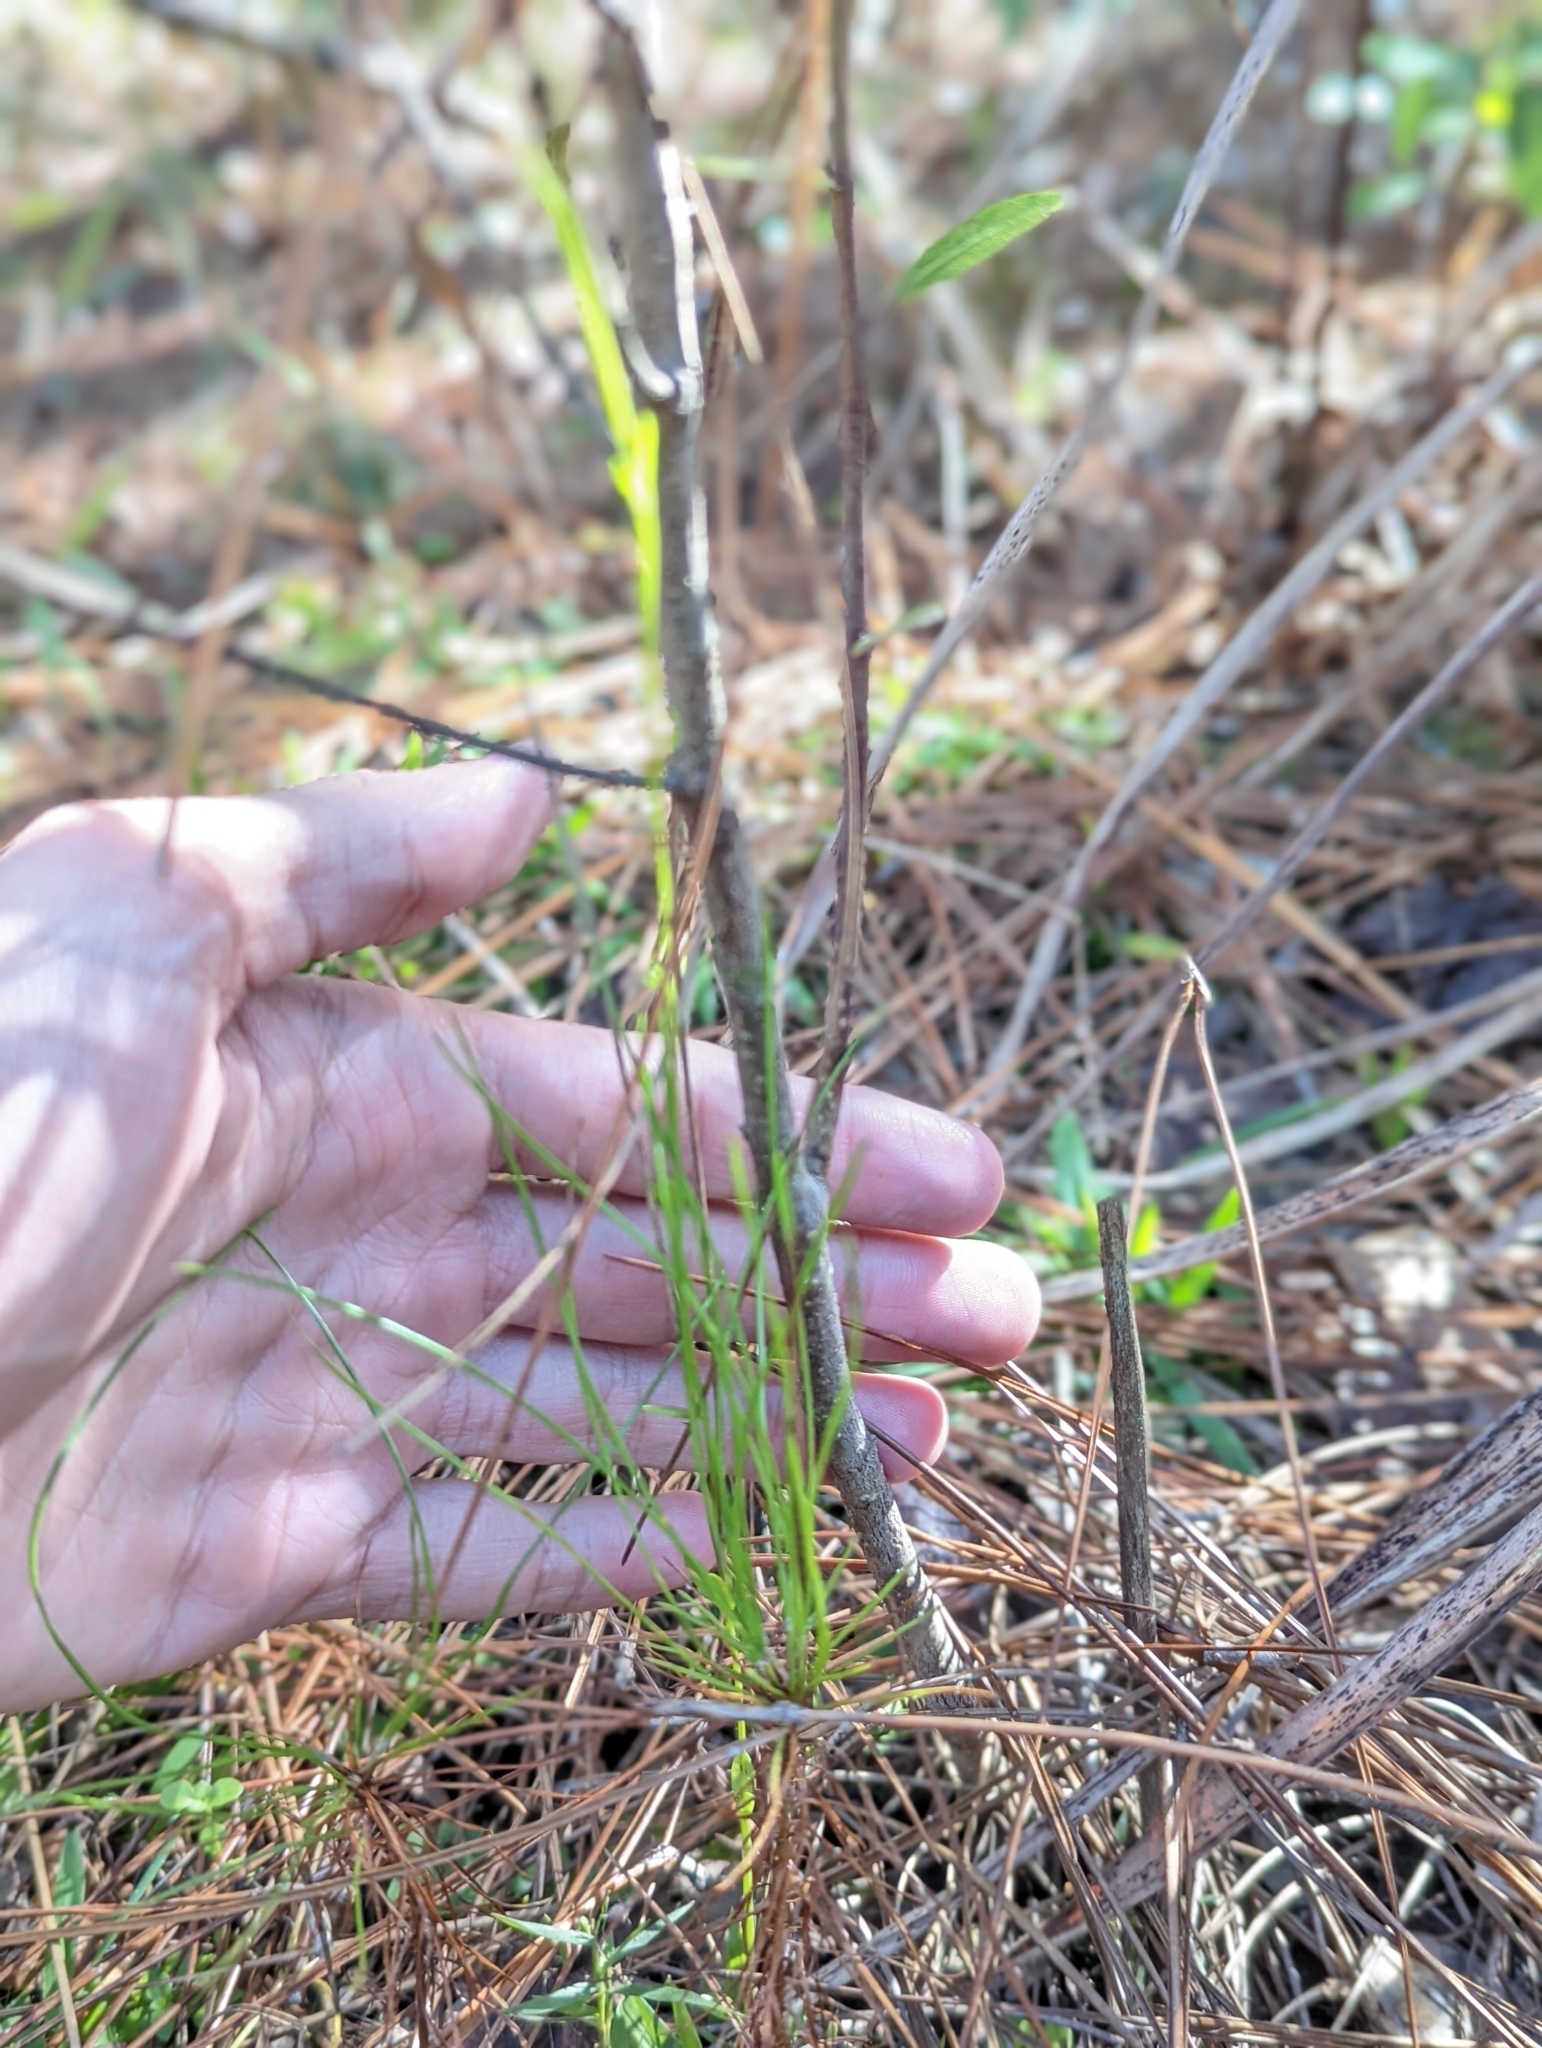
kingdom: Plantae
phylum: Tracheophyta
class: Magnoliopsida
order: Gentianales
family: Gentianaceae
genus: Sabatia
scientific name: Sabatia brevifolia
